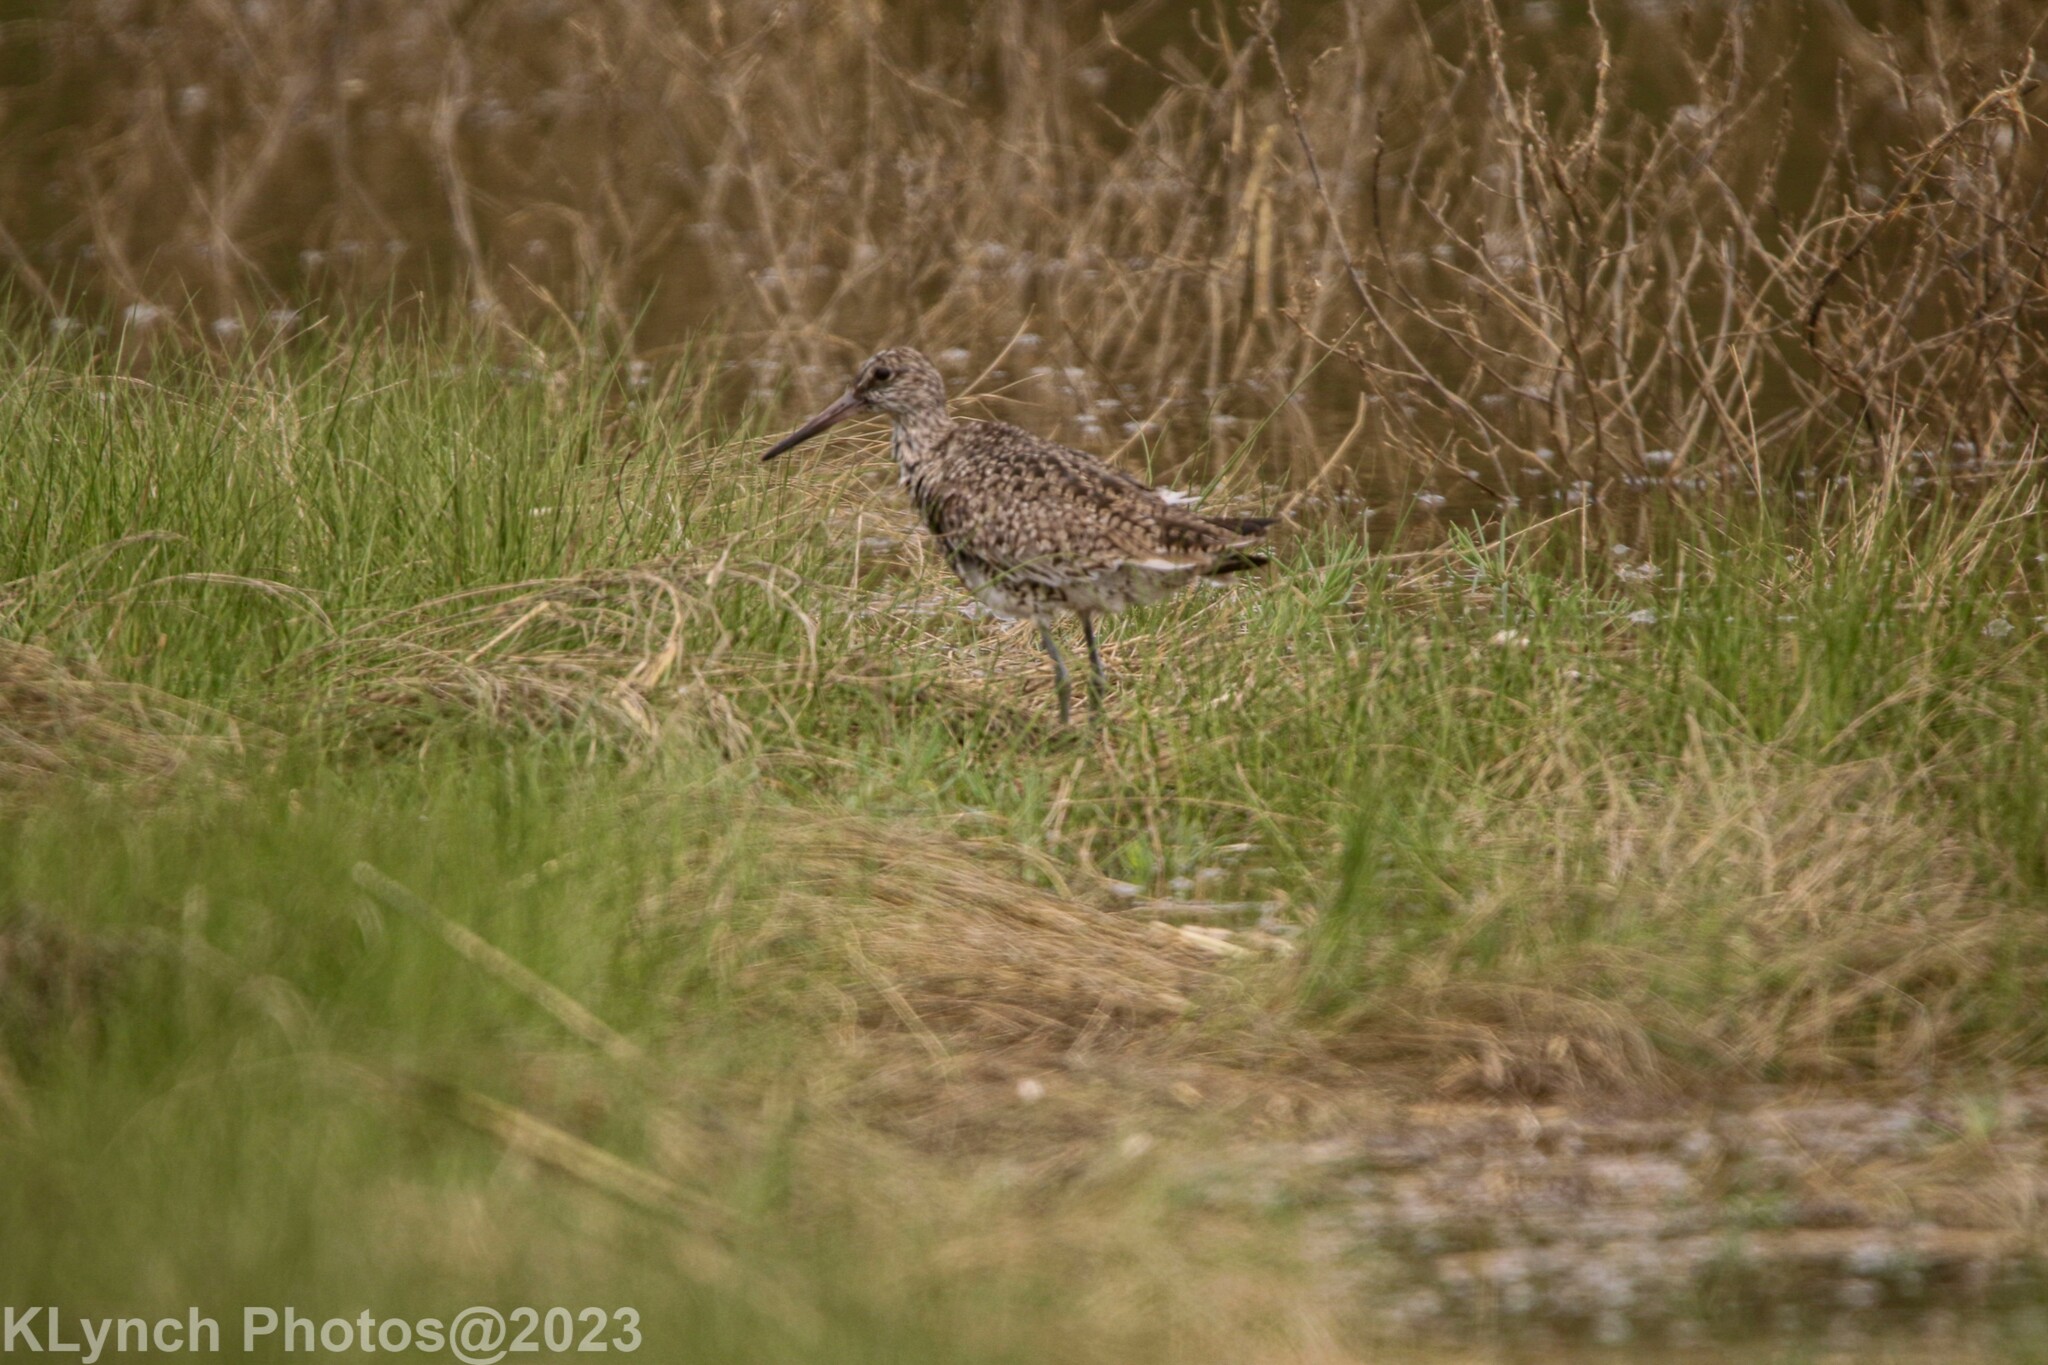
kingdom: Animalia
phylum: Chordata
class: Aves
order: Charadriiformes
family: Scolopacidae
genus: Tringa
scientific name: Tringa semipalmata
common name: Willet
